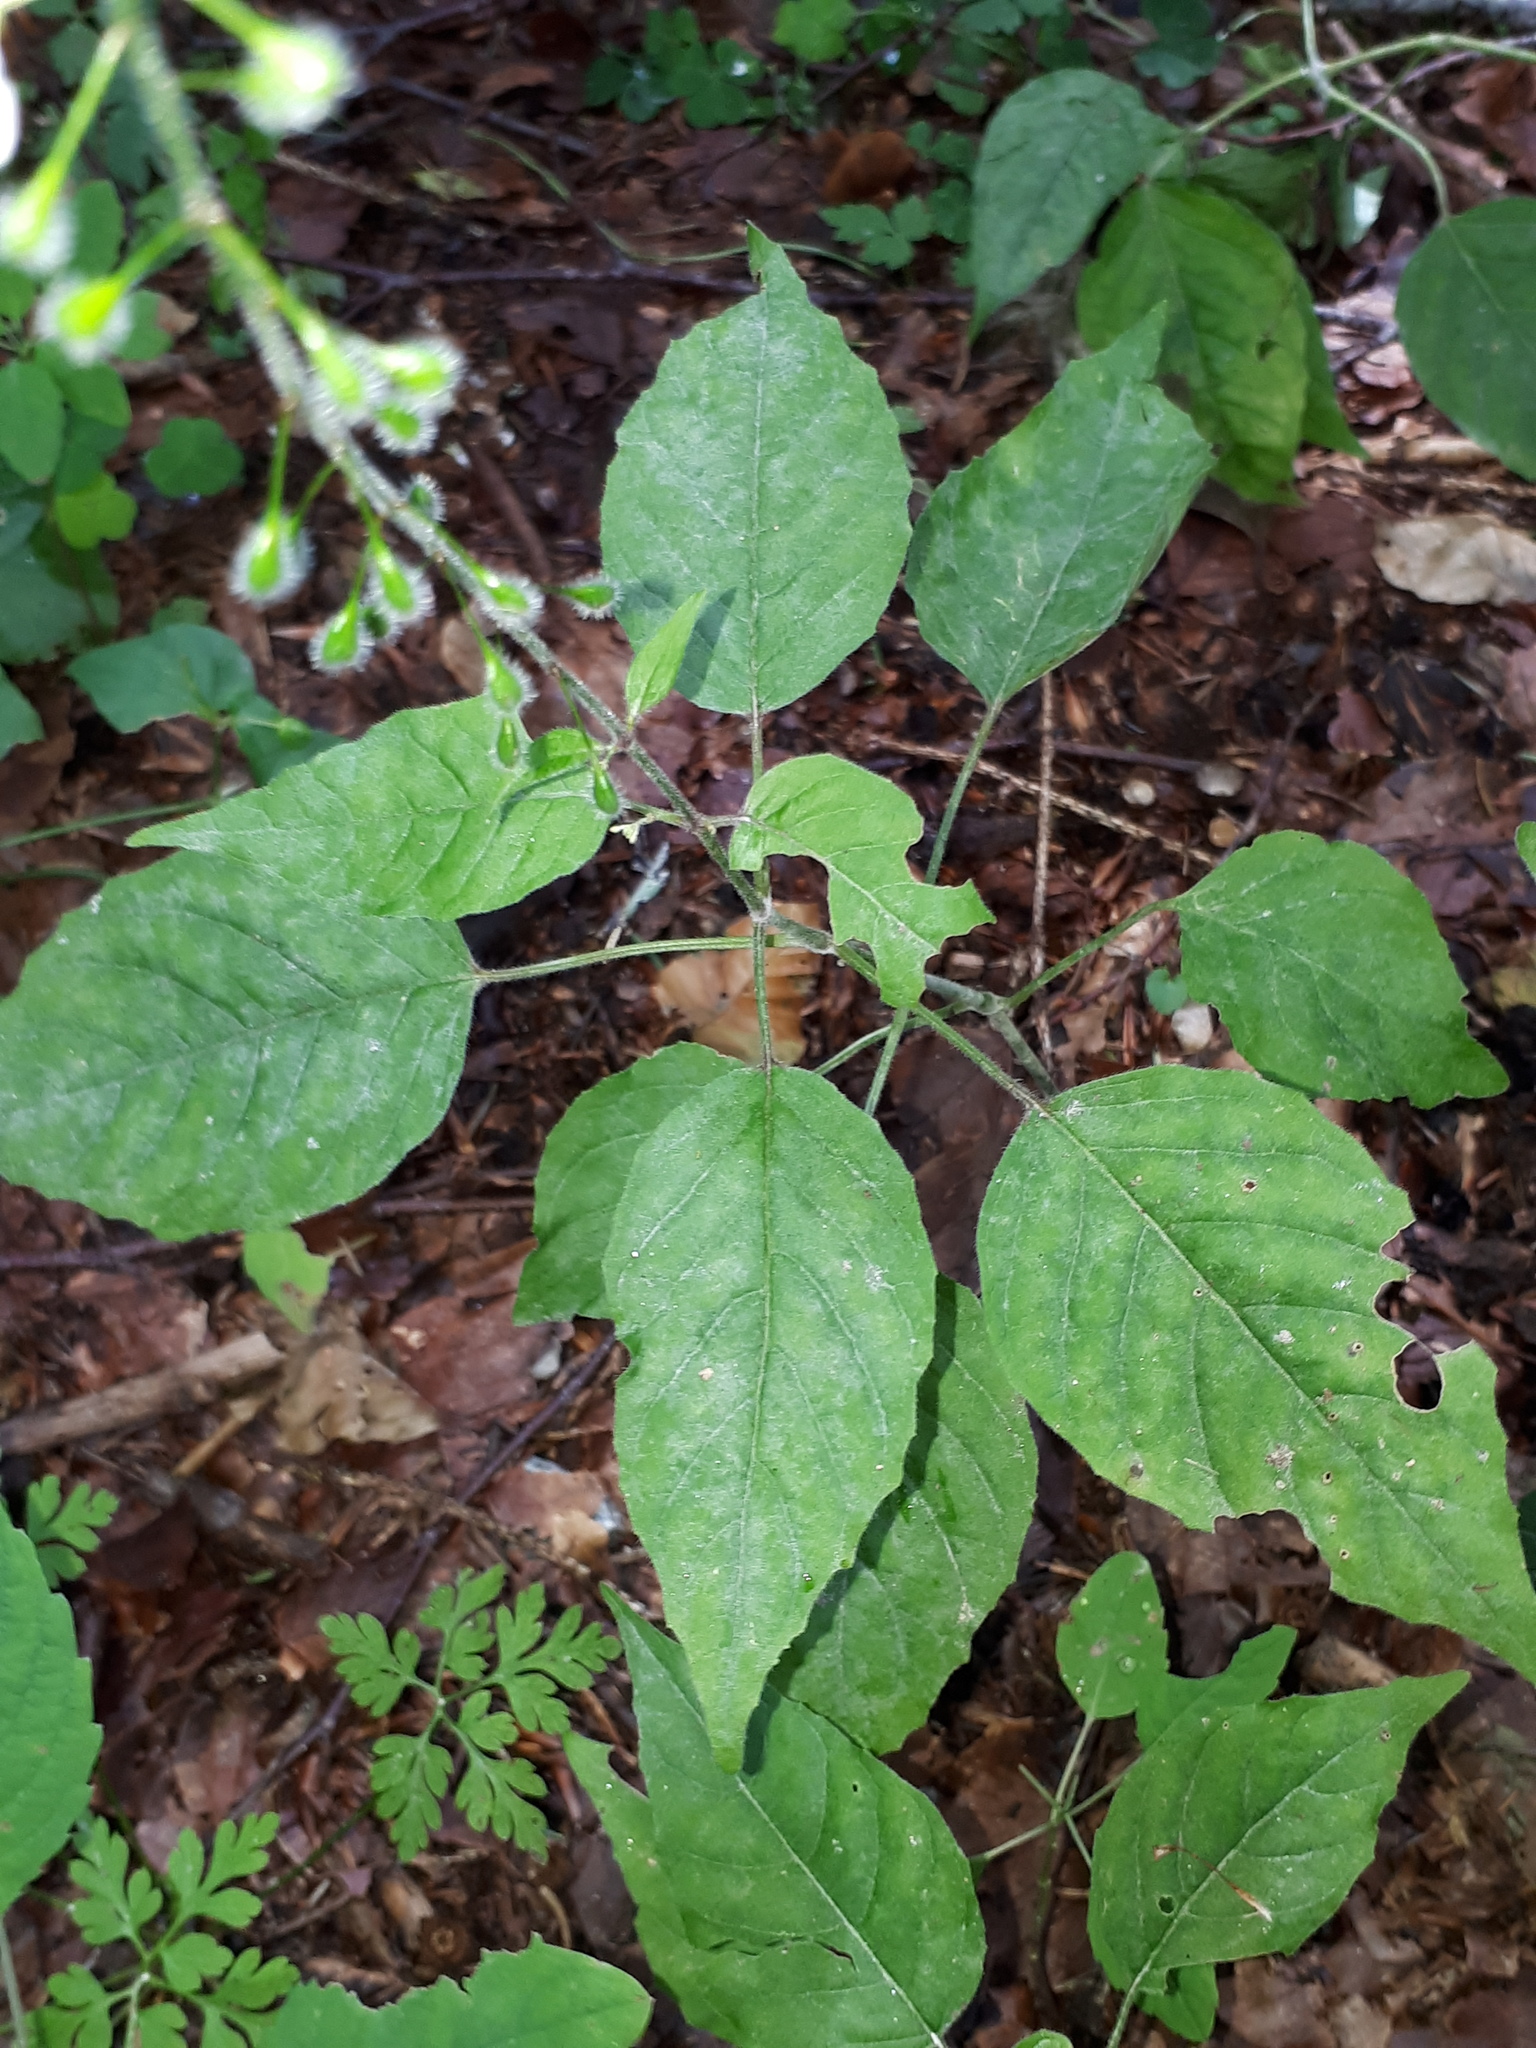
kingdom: Plantae
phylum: Tracheophyta
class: Magnoliopsida
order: Myrtales
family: Onagraceae
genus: Circaea
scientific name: Circaea lutetiana
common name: Enchanter's-nightshade
